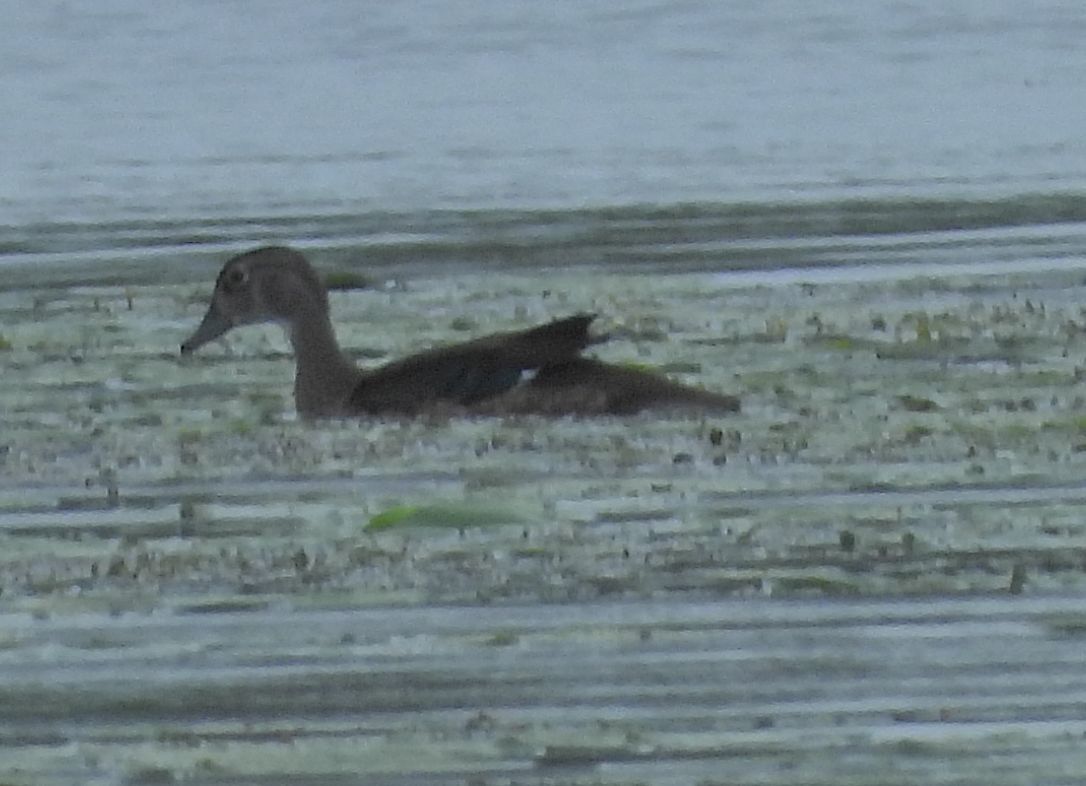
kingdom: Animalia
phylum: Chordata
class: Aves
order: Anseriformes
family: Anatidae
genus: Aix
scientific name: Aix sponsa
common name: Wood duck
